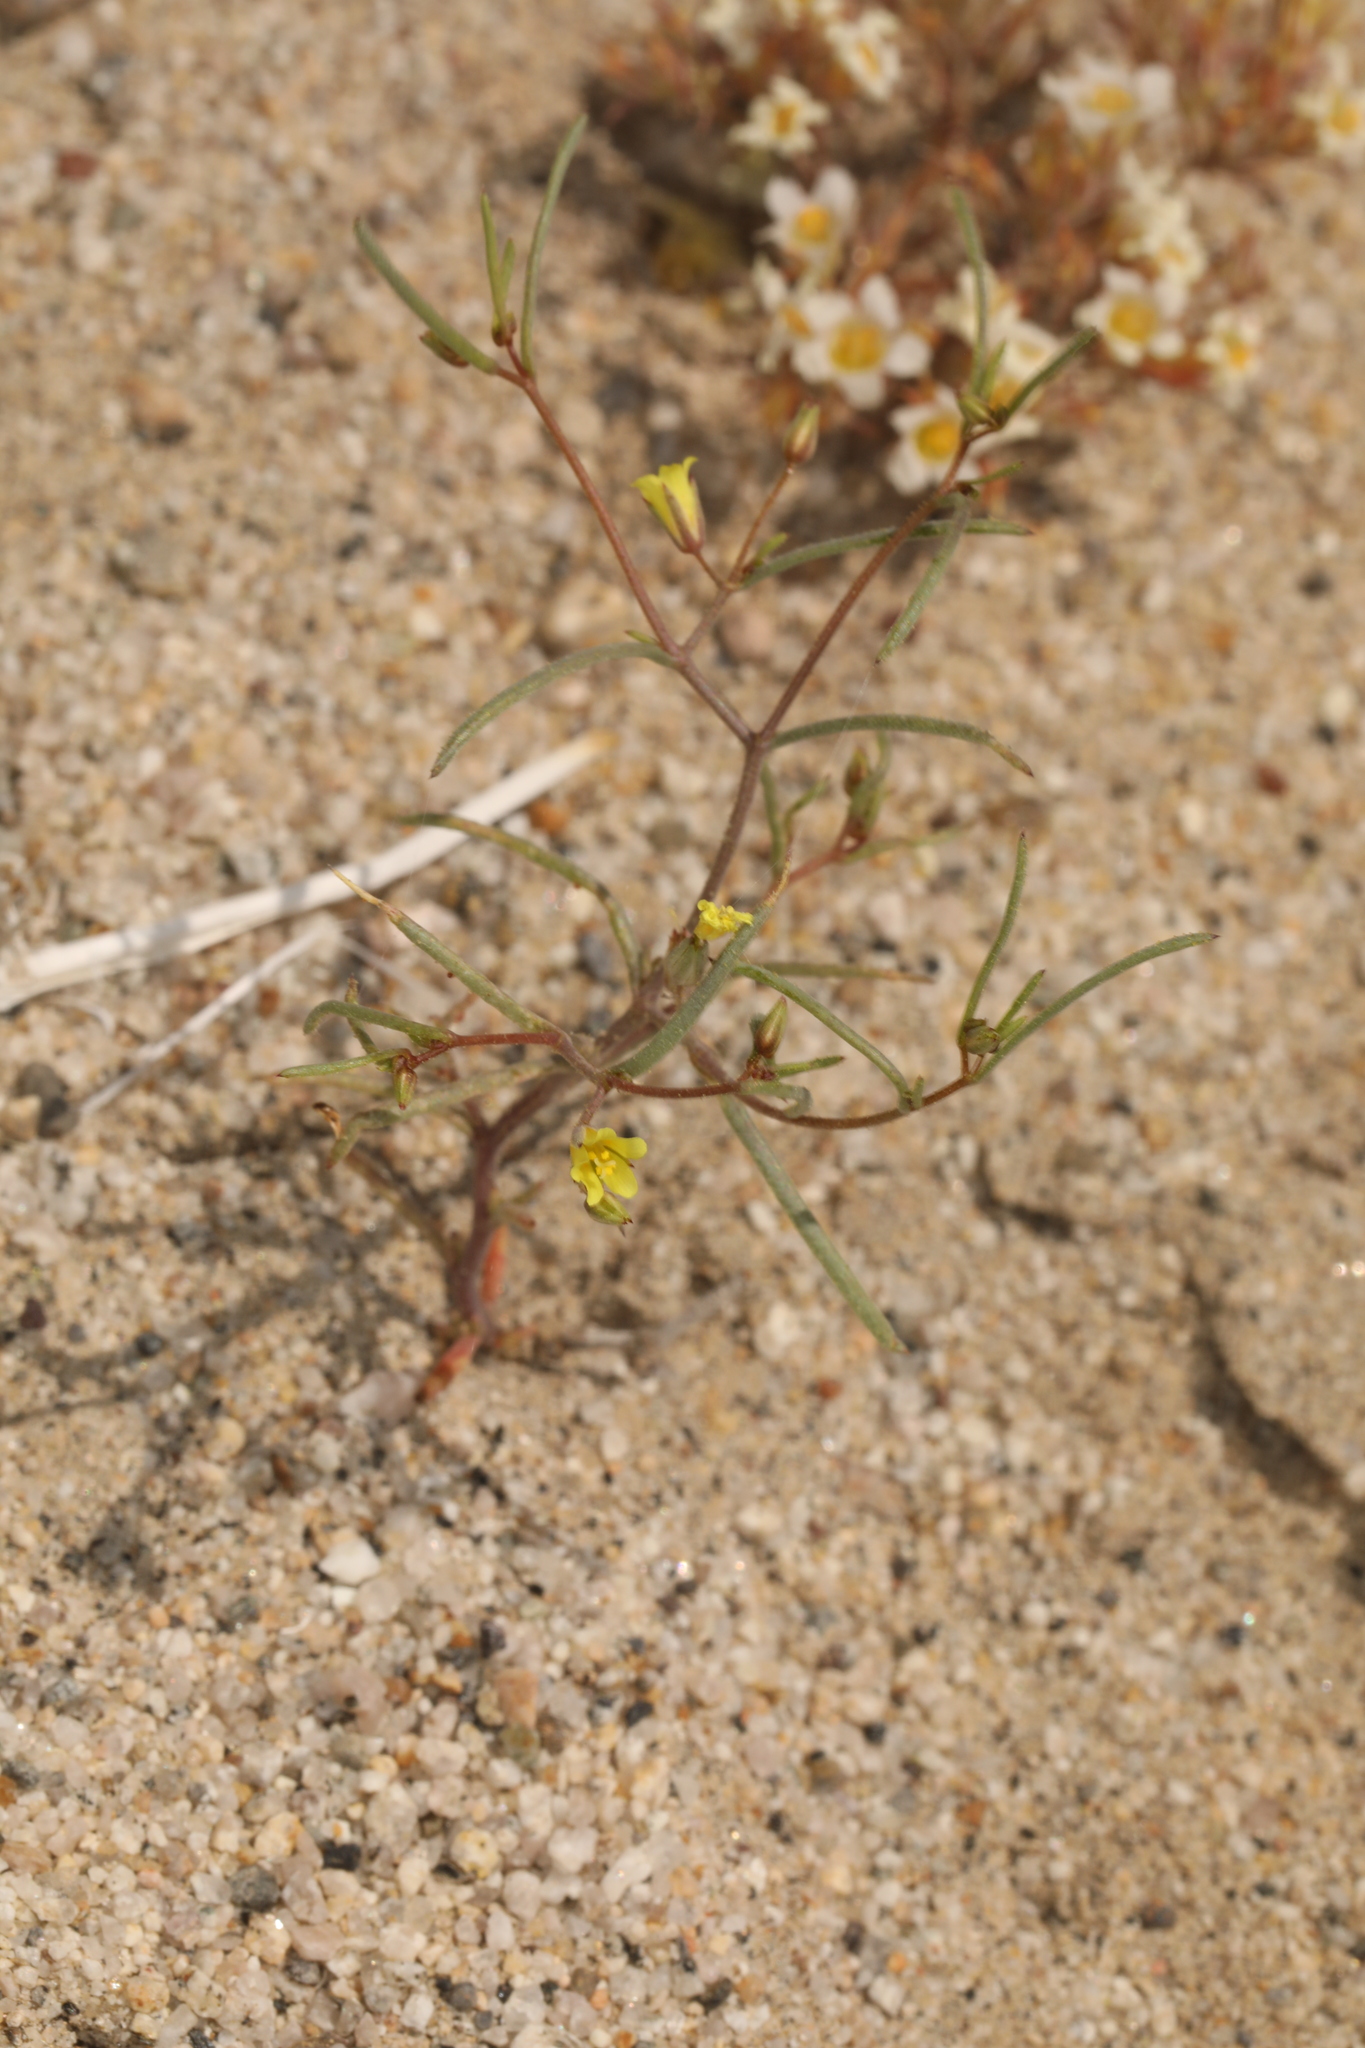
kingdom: Plantae
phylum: Tracheophyta
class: Magnoliopsida
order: Ericales
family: Polemoniaceae
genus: Linanthus
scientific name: Linanthus filiformis
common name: Yellow gilia
